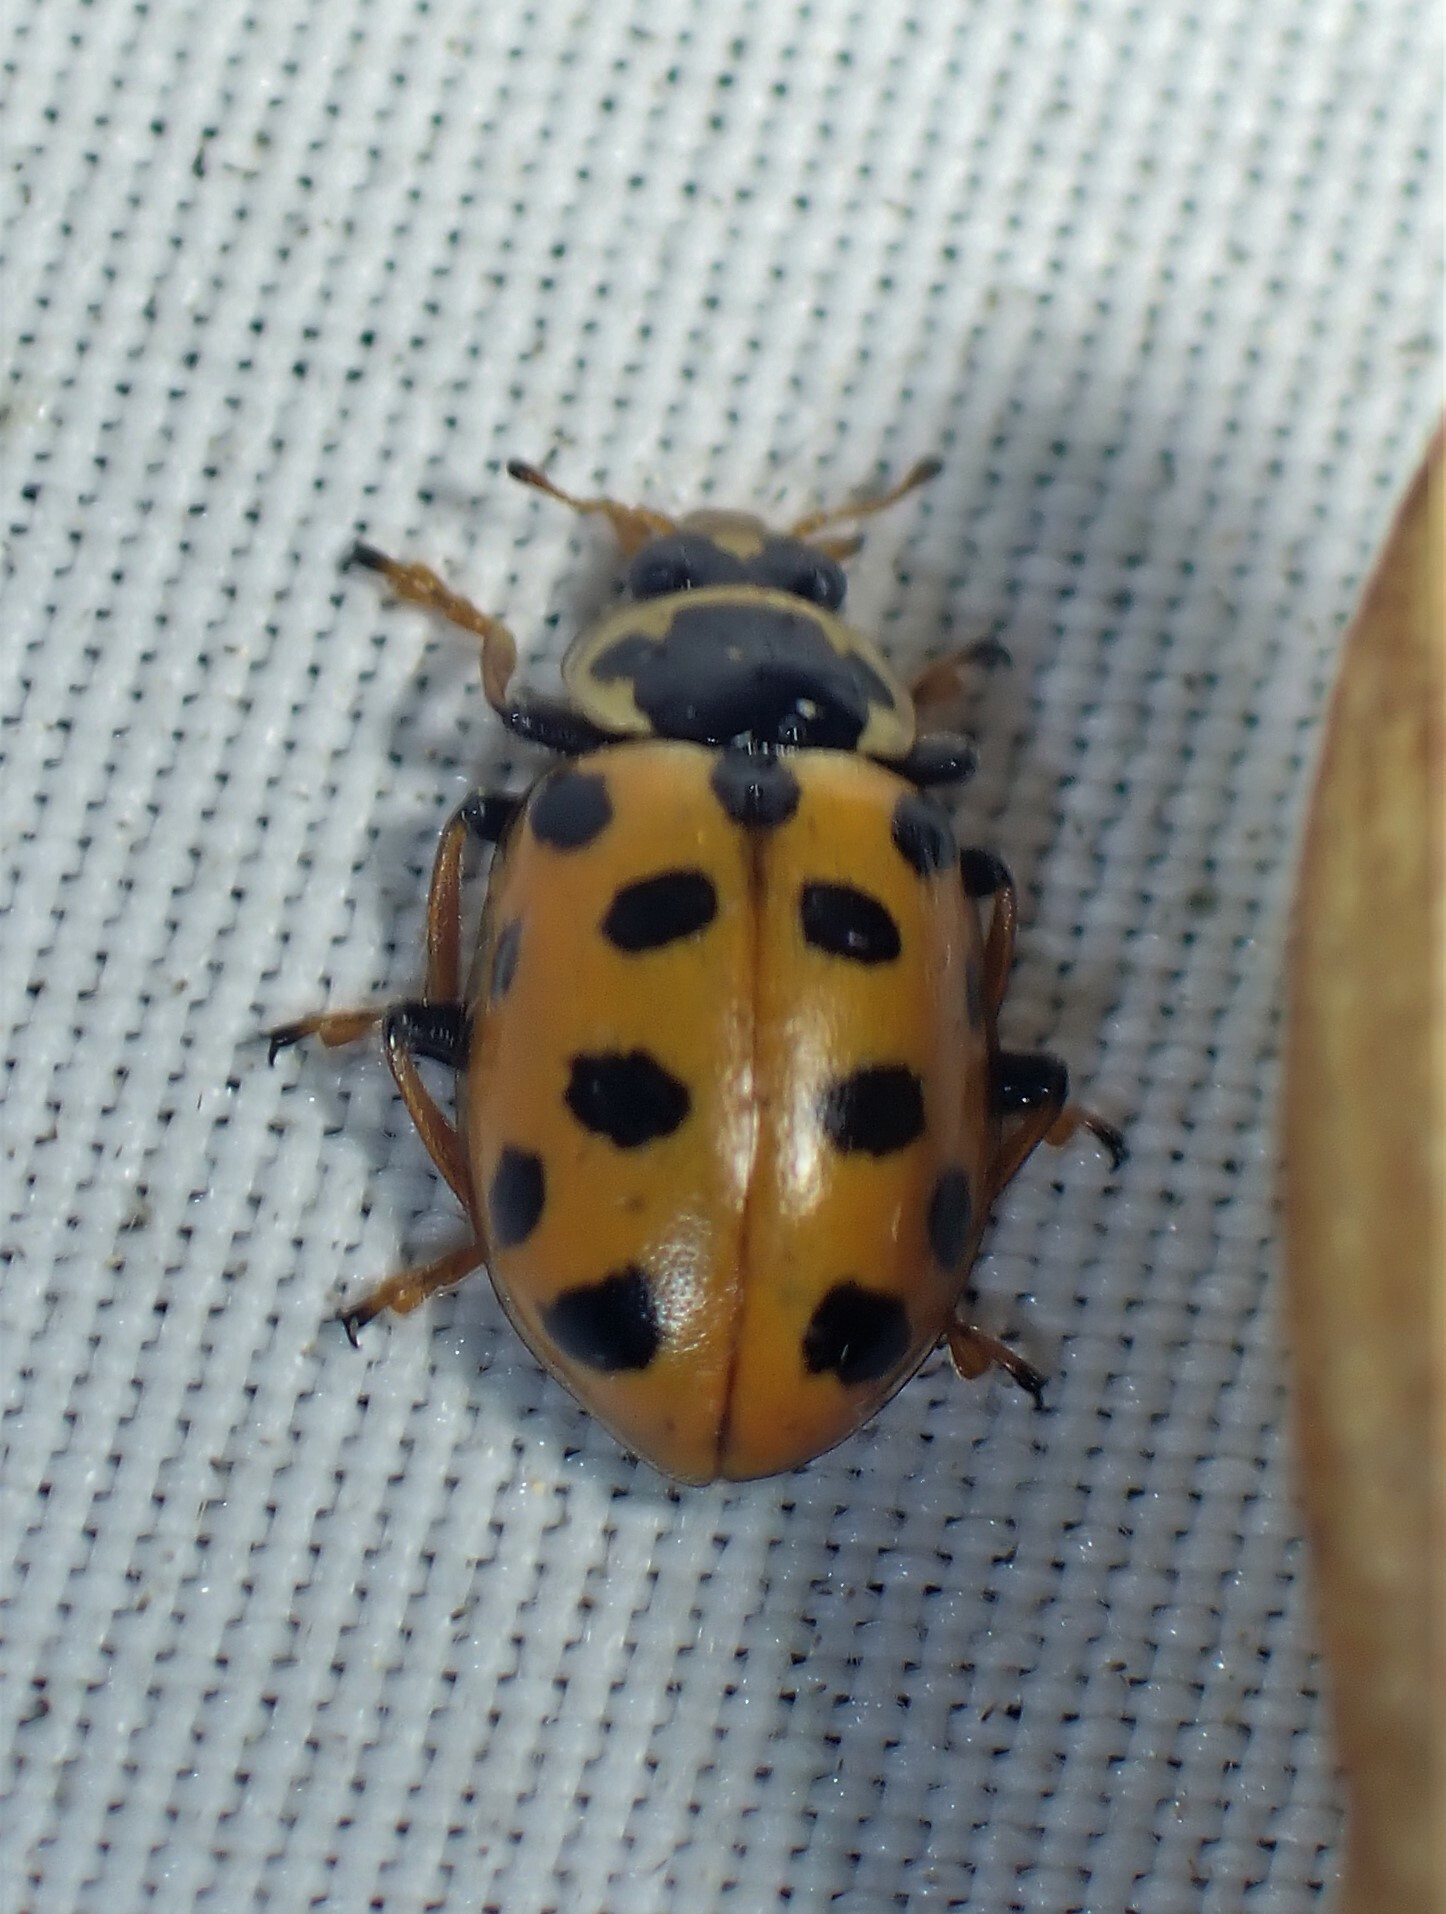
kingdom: Animalia
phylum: Arthropoda
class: Insecta
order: Coleoptera
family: Coccinellidae
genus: Hippodamia
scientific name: Hippodamia tredecimpunctata
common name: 13-spot ladybird
